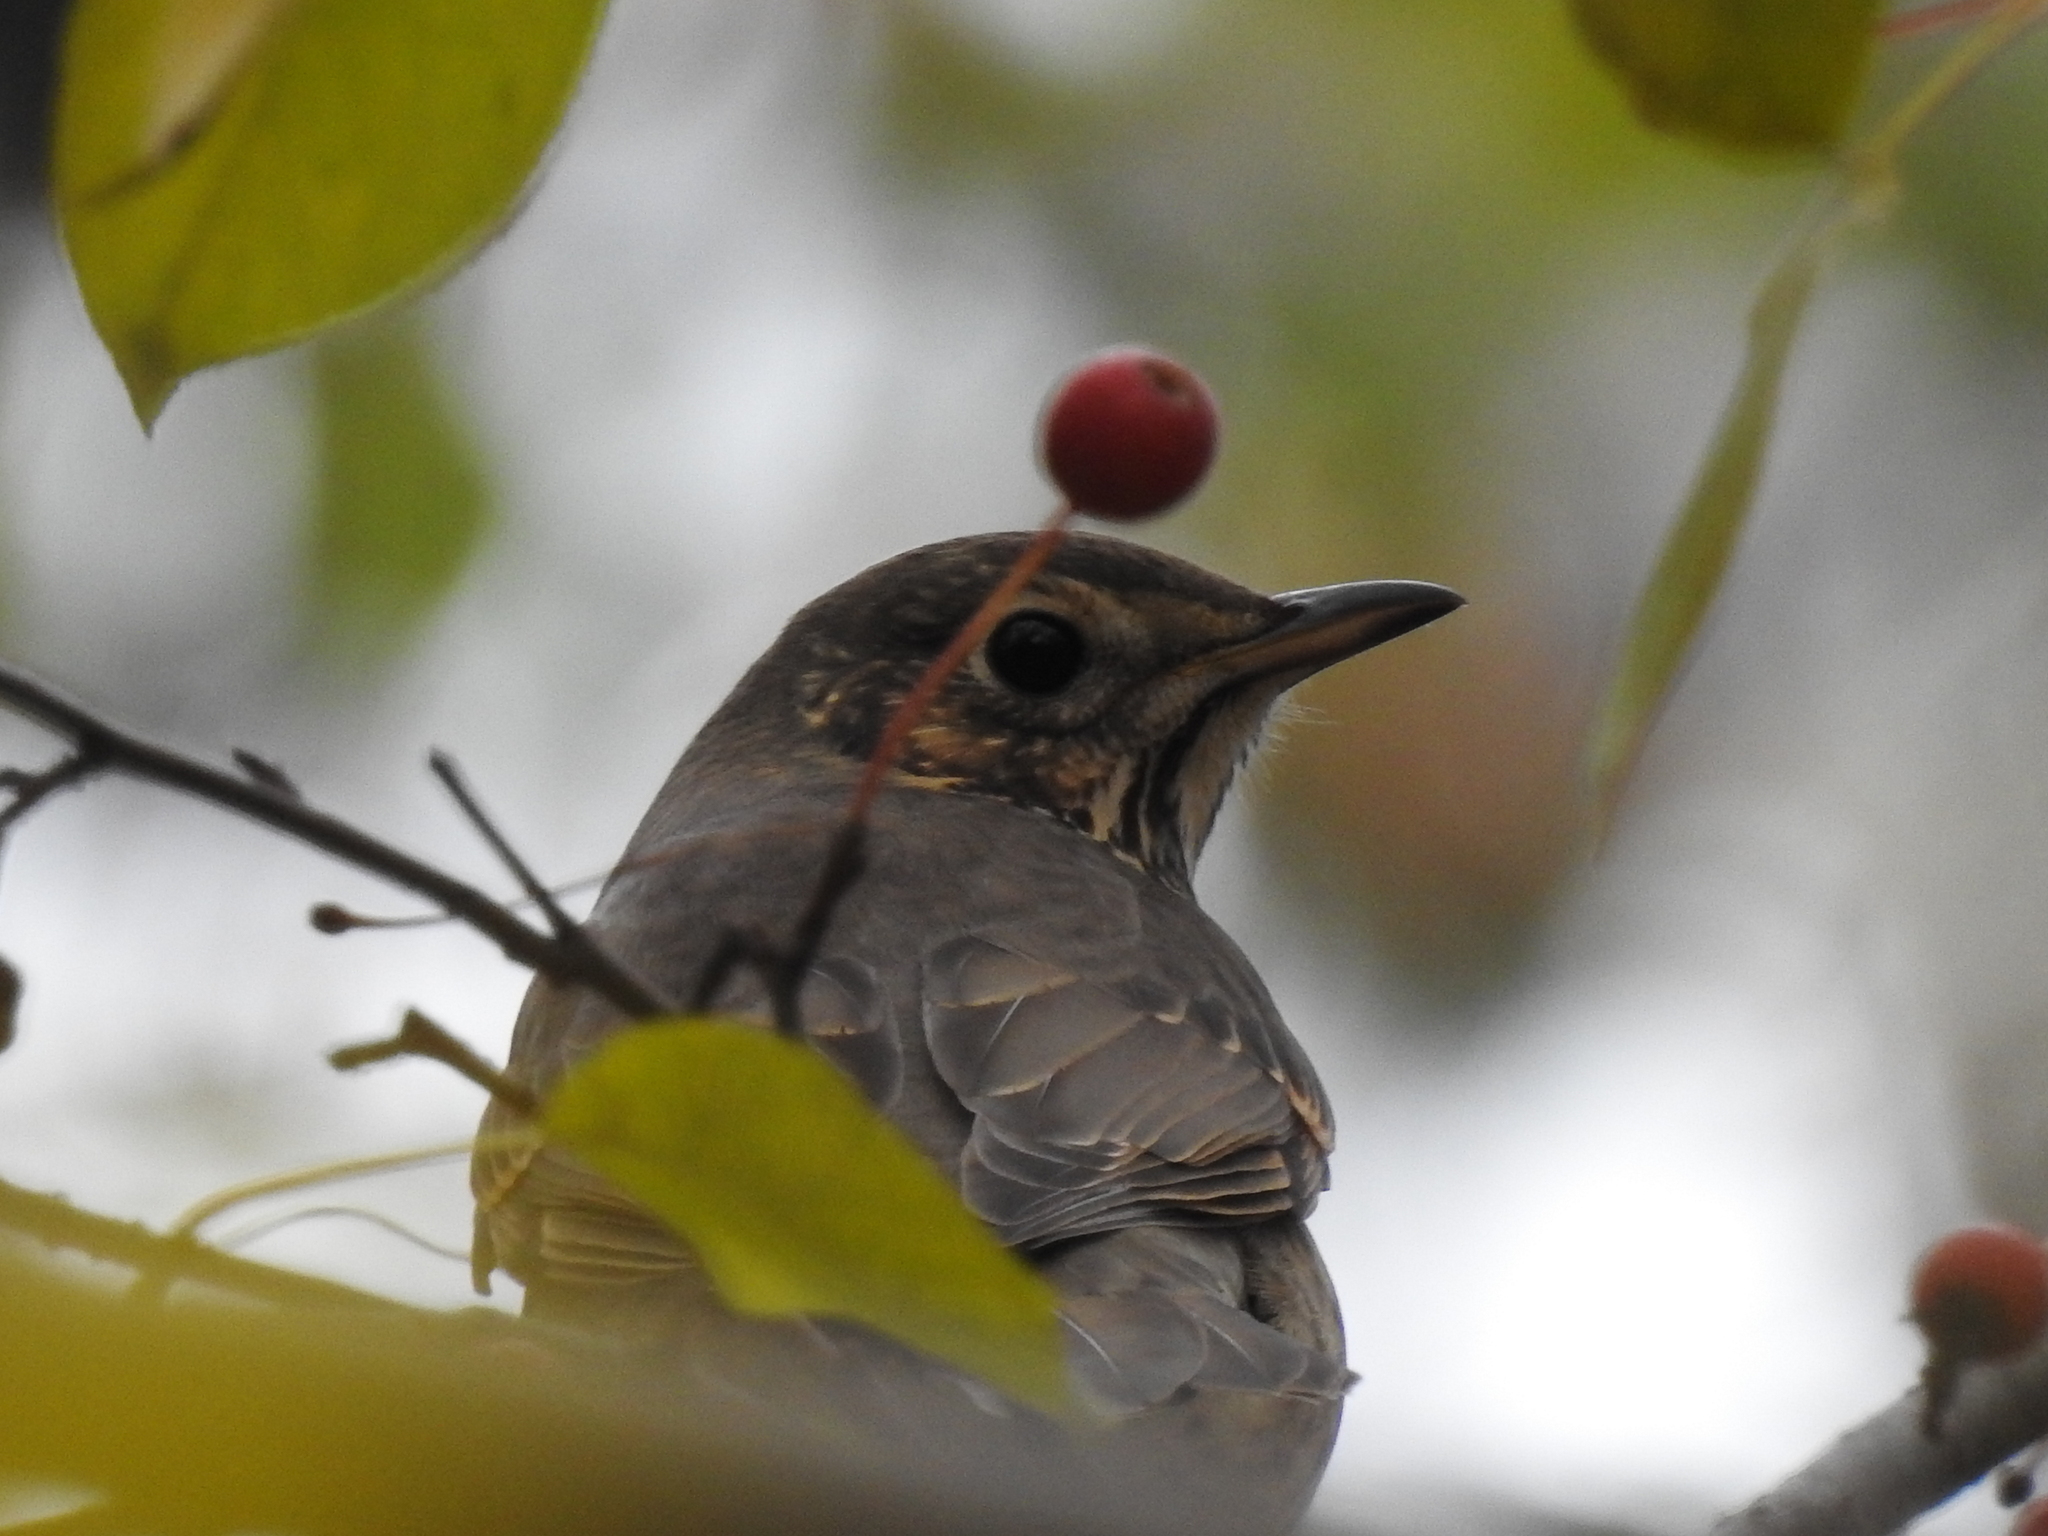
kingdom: Animalia
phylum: Chordata
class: Aves
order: Passeriformes
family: Turdidae
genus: Turdus
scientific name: Turdus philomelos
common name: Song thrush
